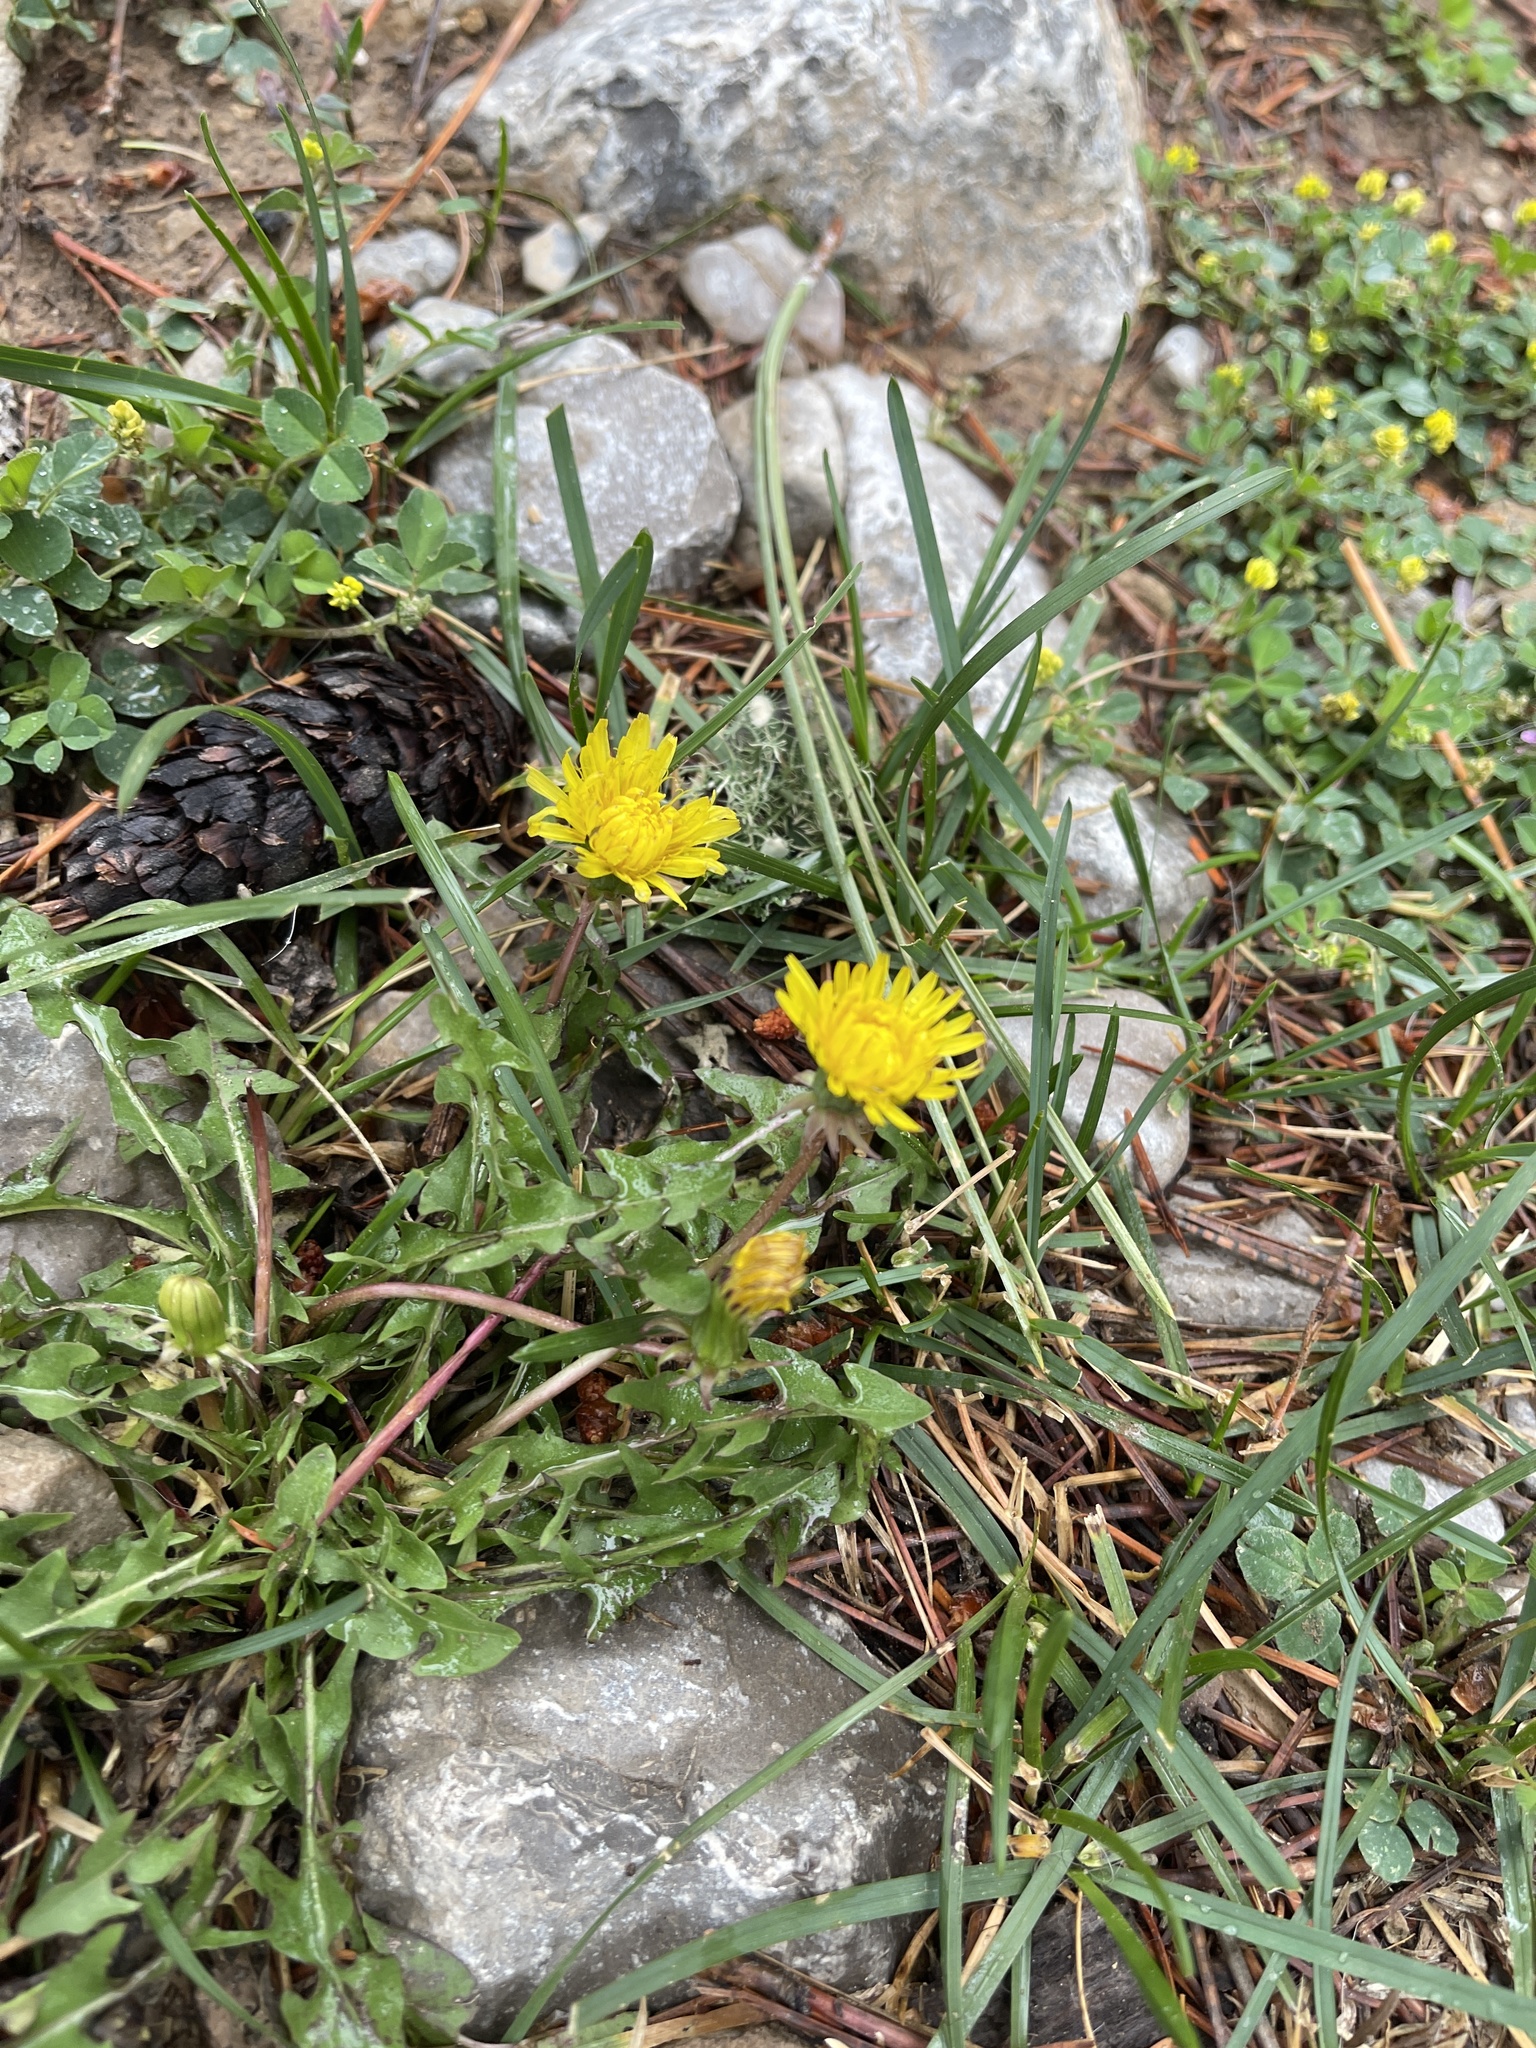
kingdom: Plantae
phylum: Tracheophyta
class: Magnoliopsida
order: Asterales
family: Asteraceae
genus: Taraxacum
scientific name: Taraxacum officinale
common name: Common dandelion
